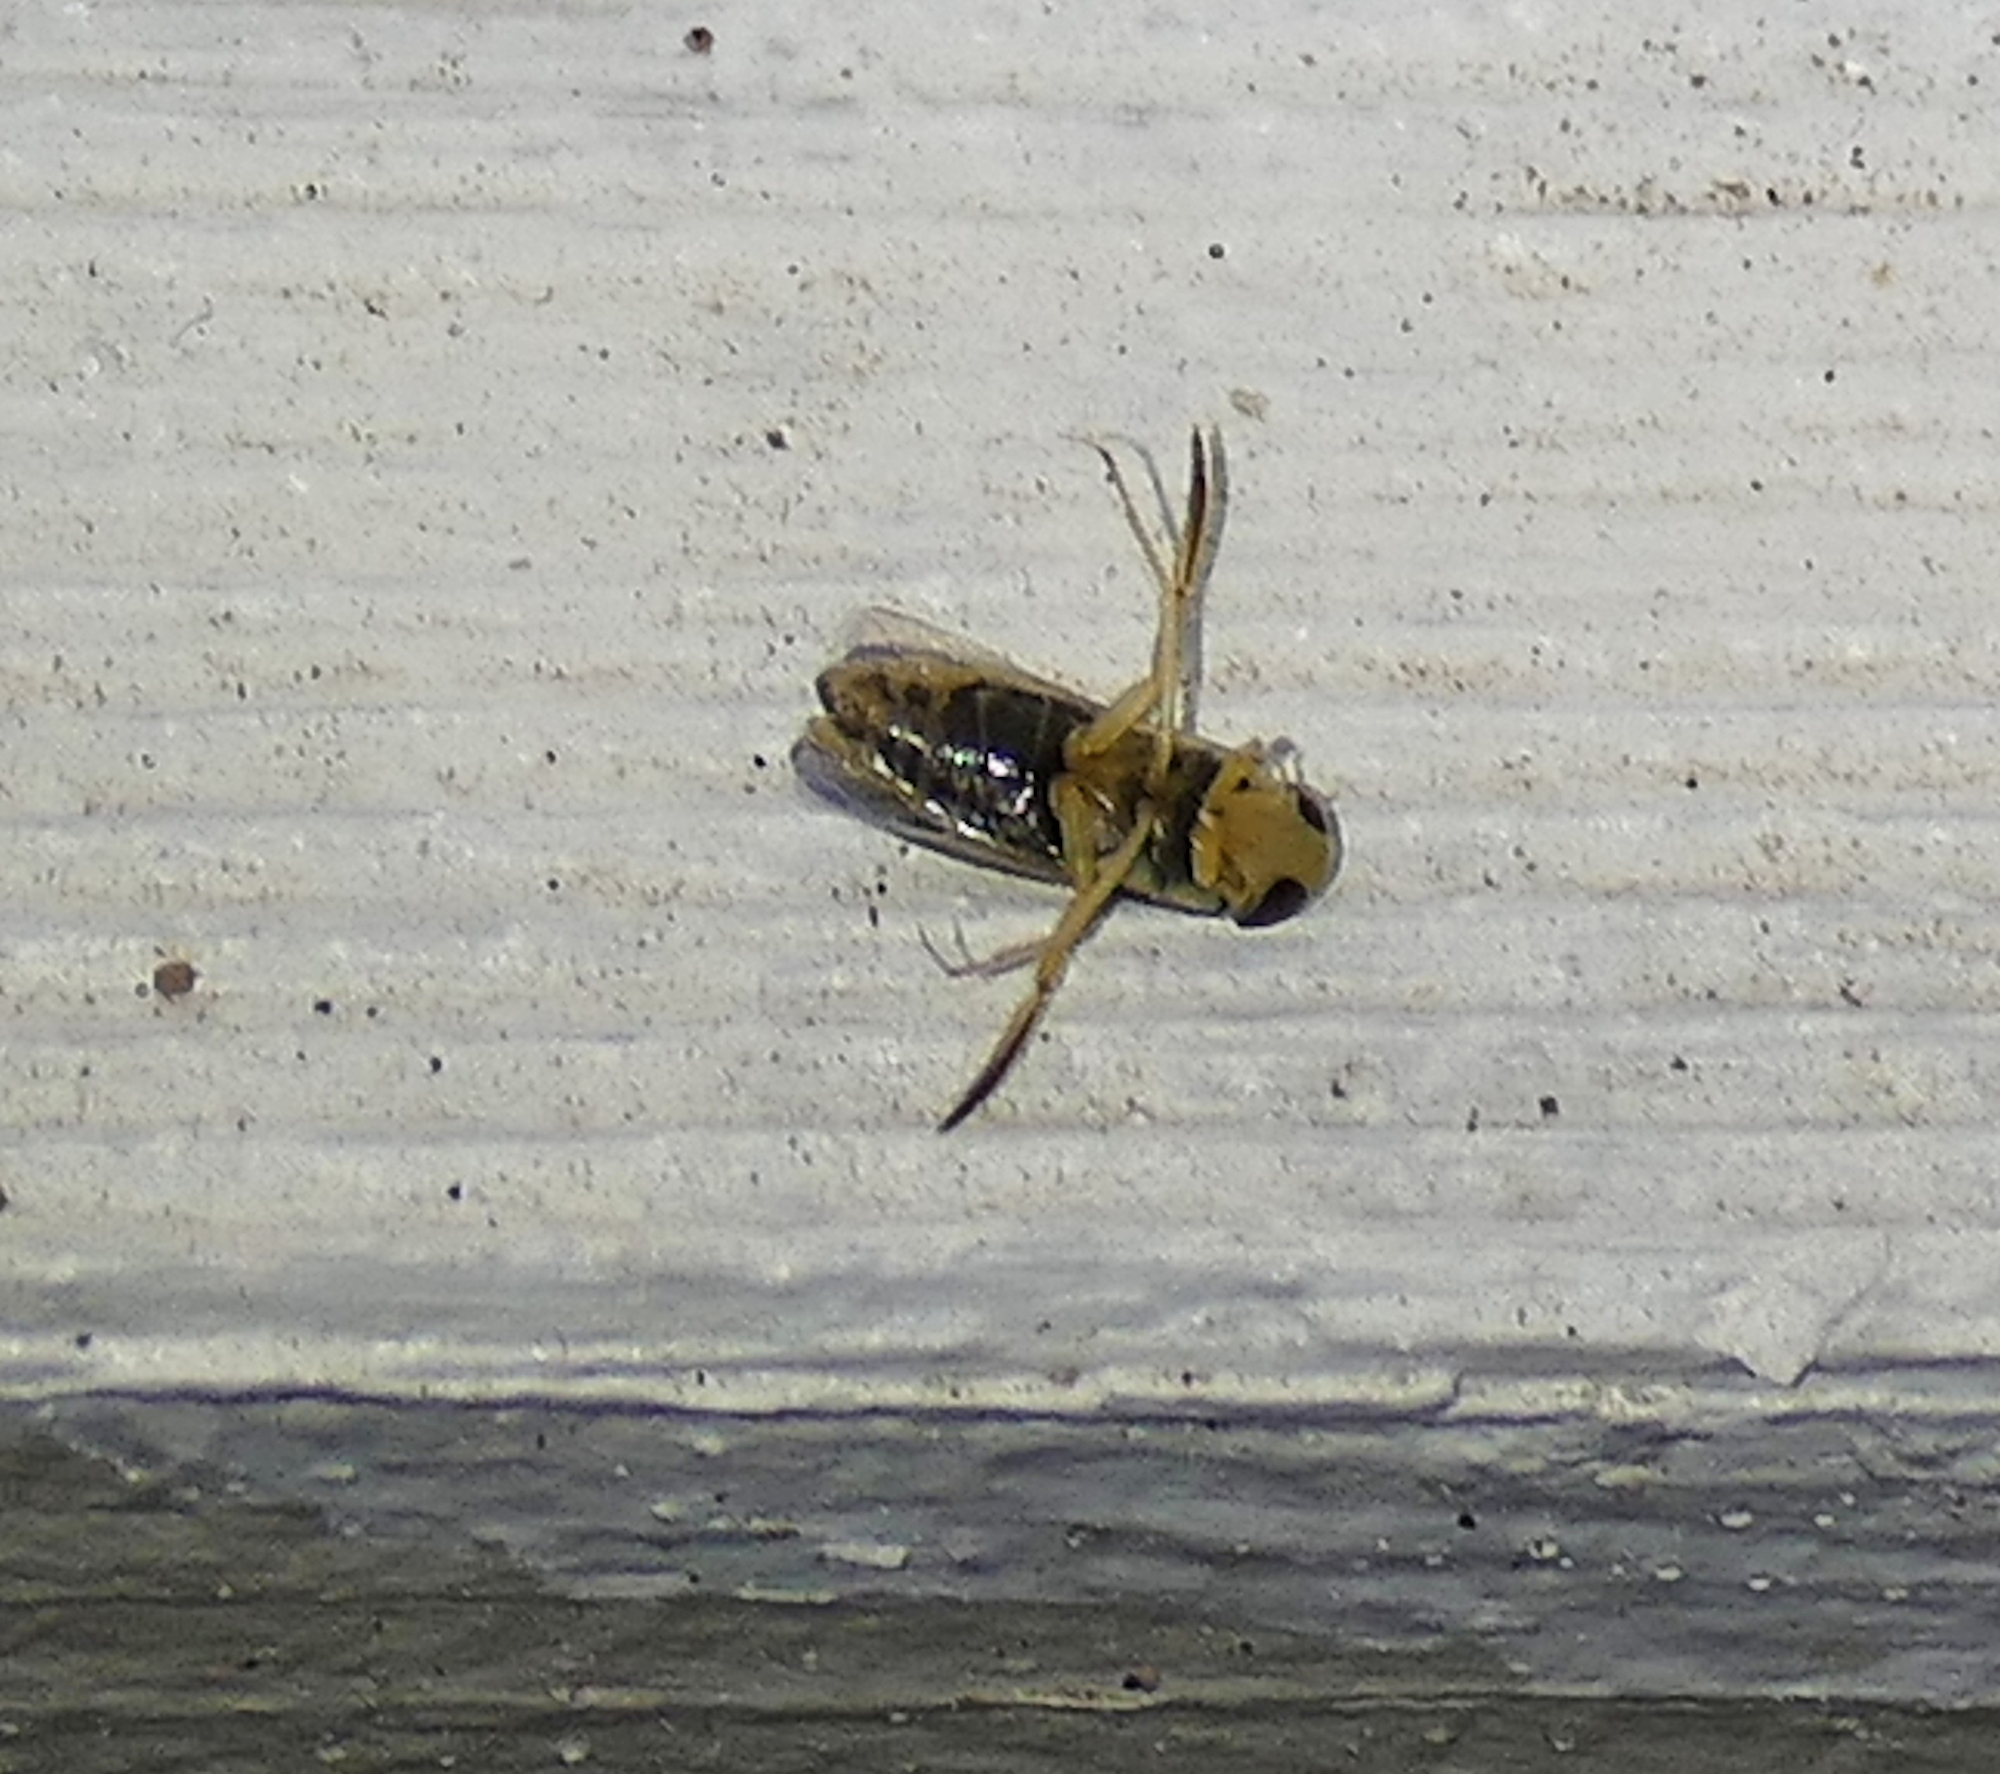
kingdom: Animalia
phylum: Arthropoda
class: Insecta
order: Hemiptera
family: Corixidae
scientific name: Corixidae
